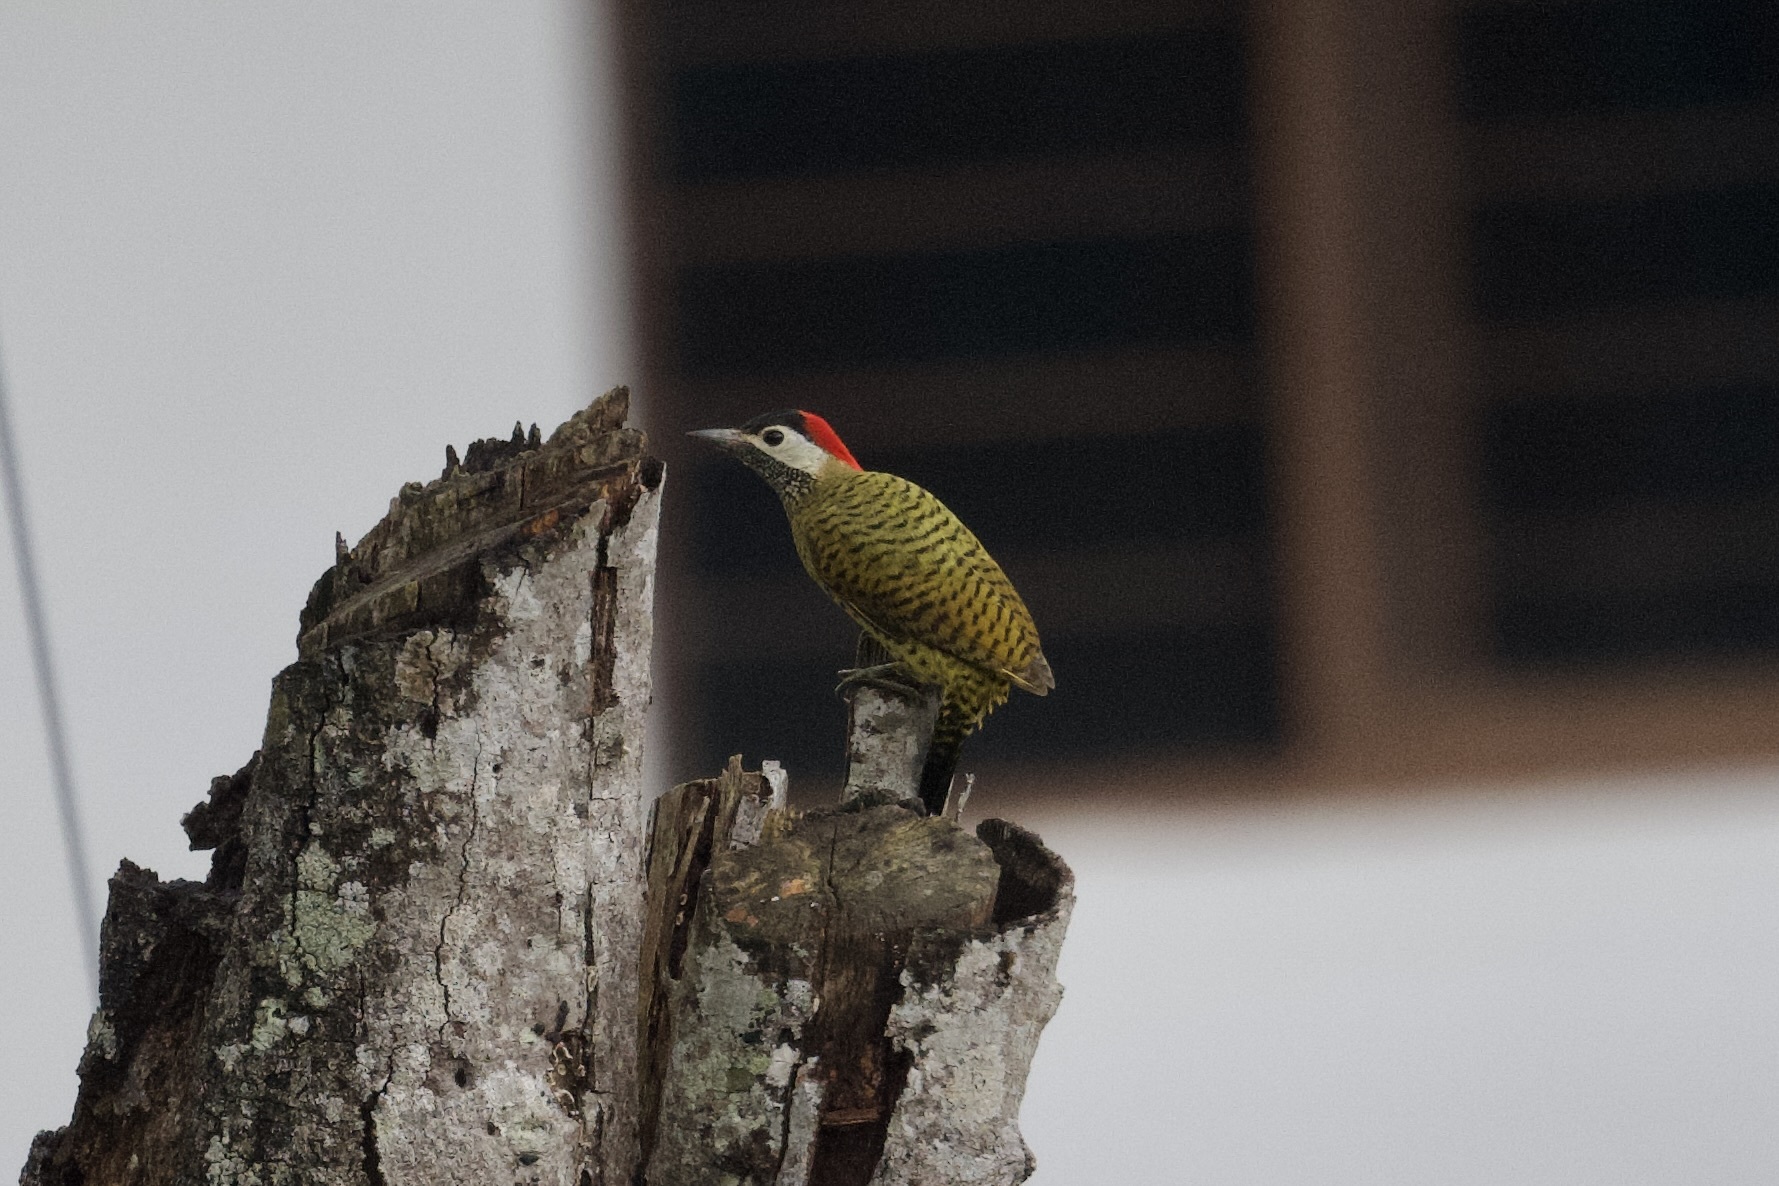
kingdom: Animalia
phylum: Chordata
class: Aves
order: Piciformes
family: Picidae
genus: Colaptes
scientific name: Colaptes punctigula
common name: Spot-breasted woodpecker
